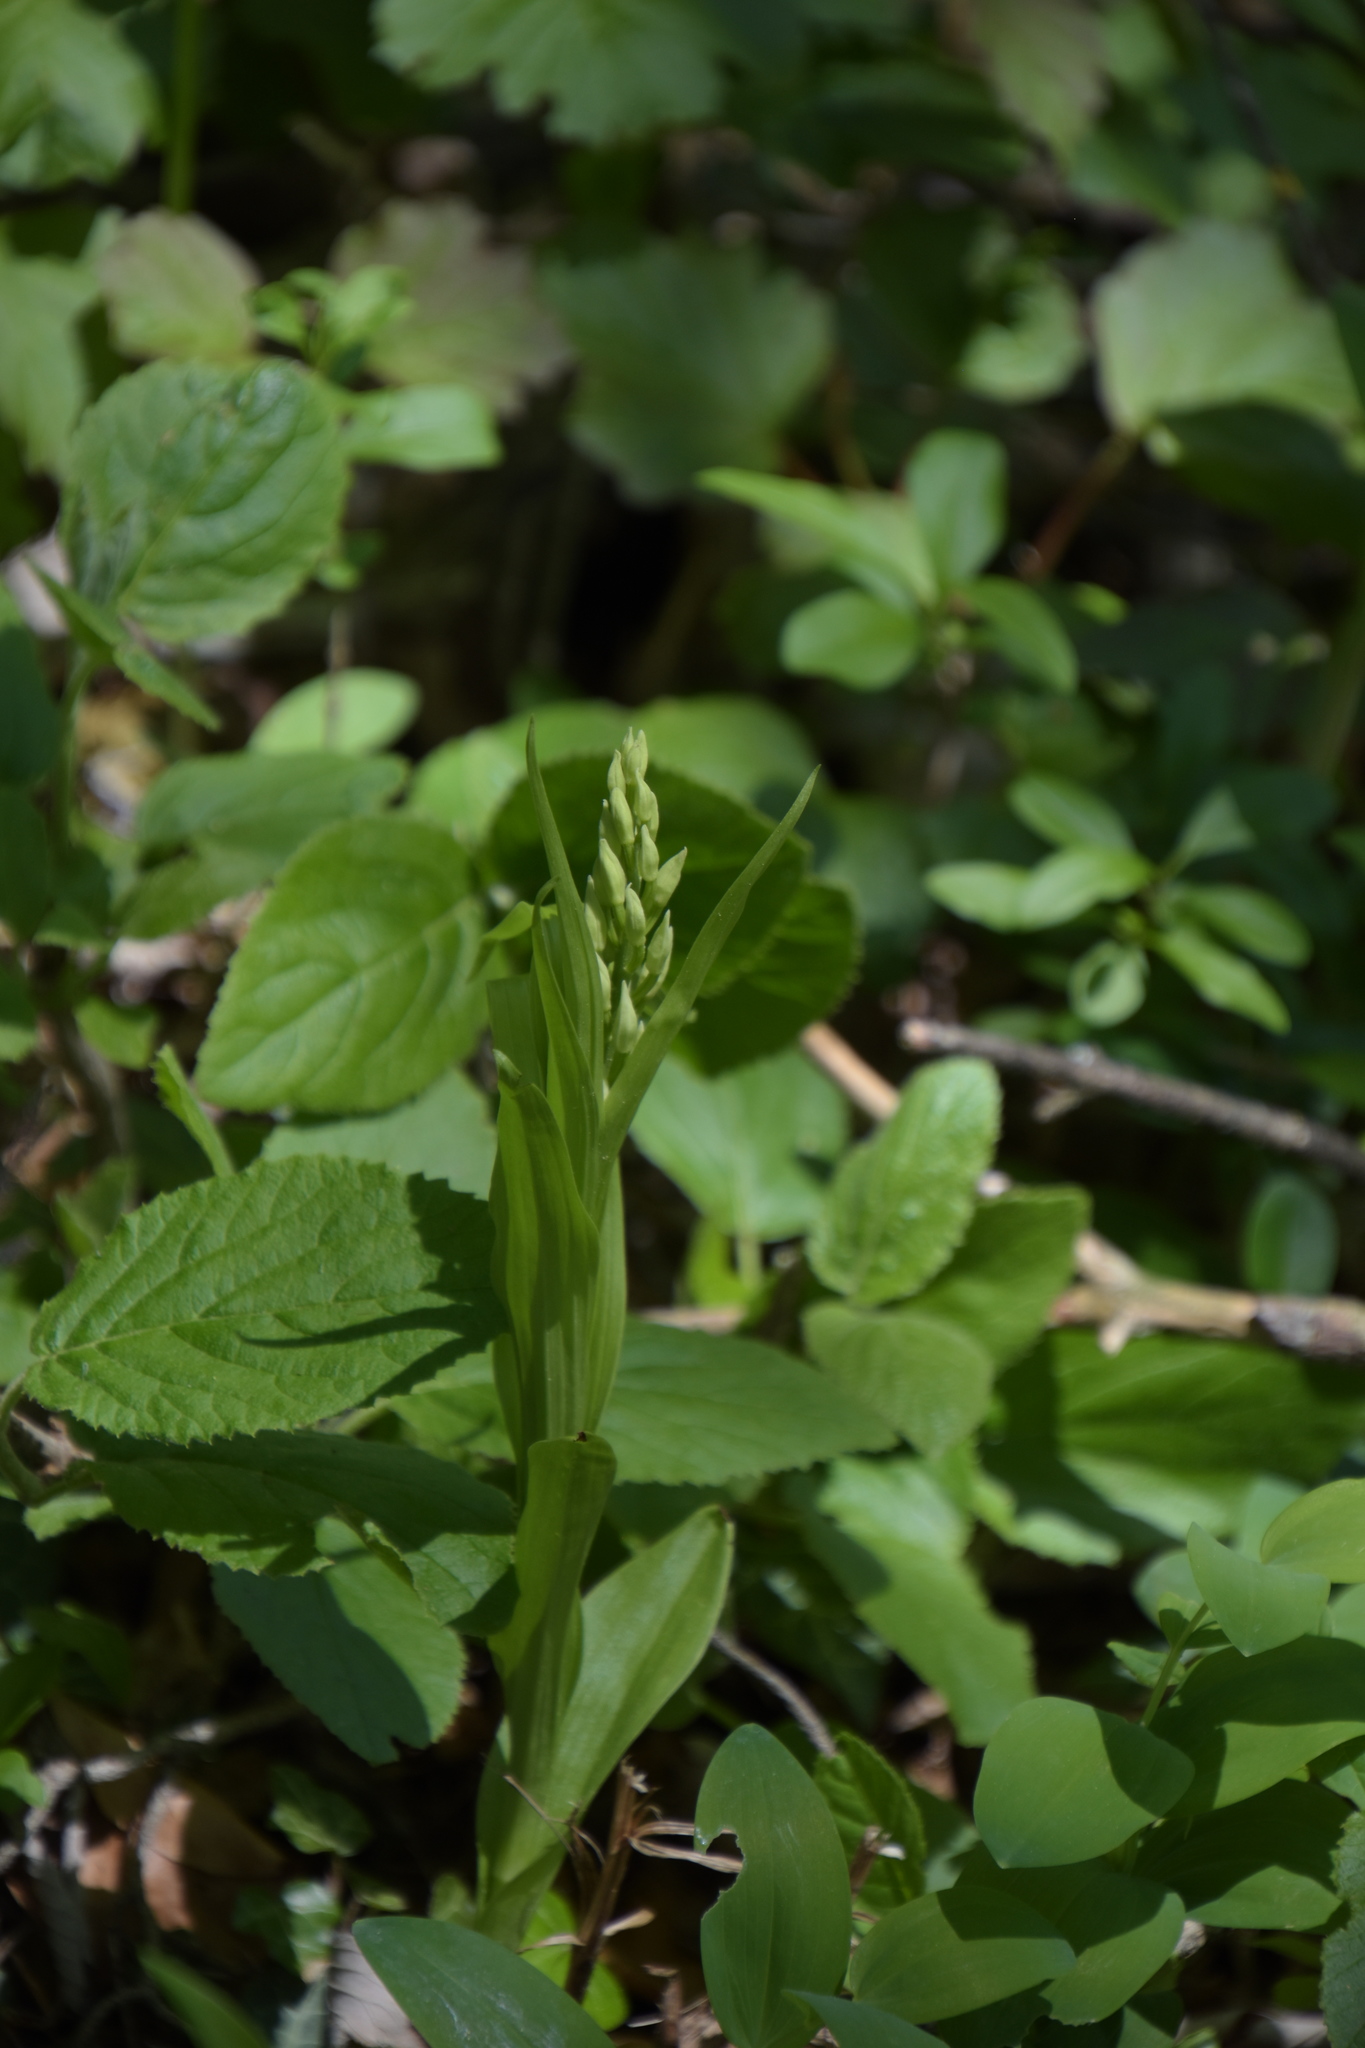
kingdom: Plantae
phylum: Tracheophyta
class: Liliopsida
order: Asparagales
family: Orchidaceae
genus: Cephalanthera
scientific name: Cephalanthera longifolia
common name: Narrow-leaved helleborine
